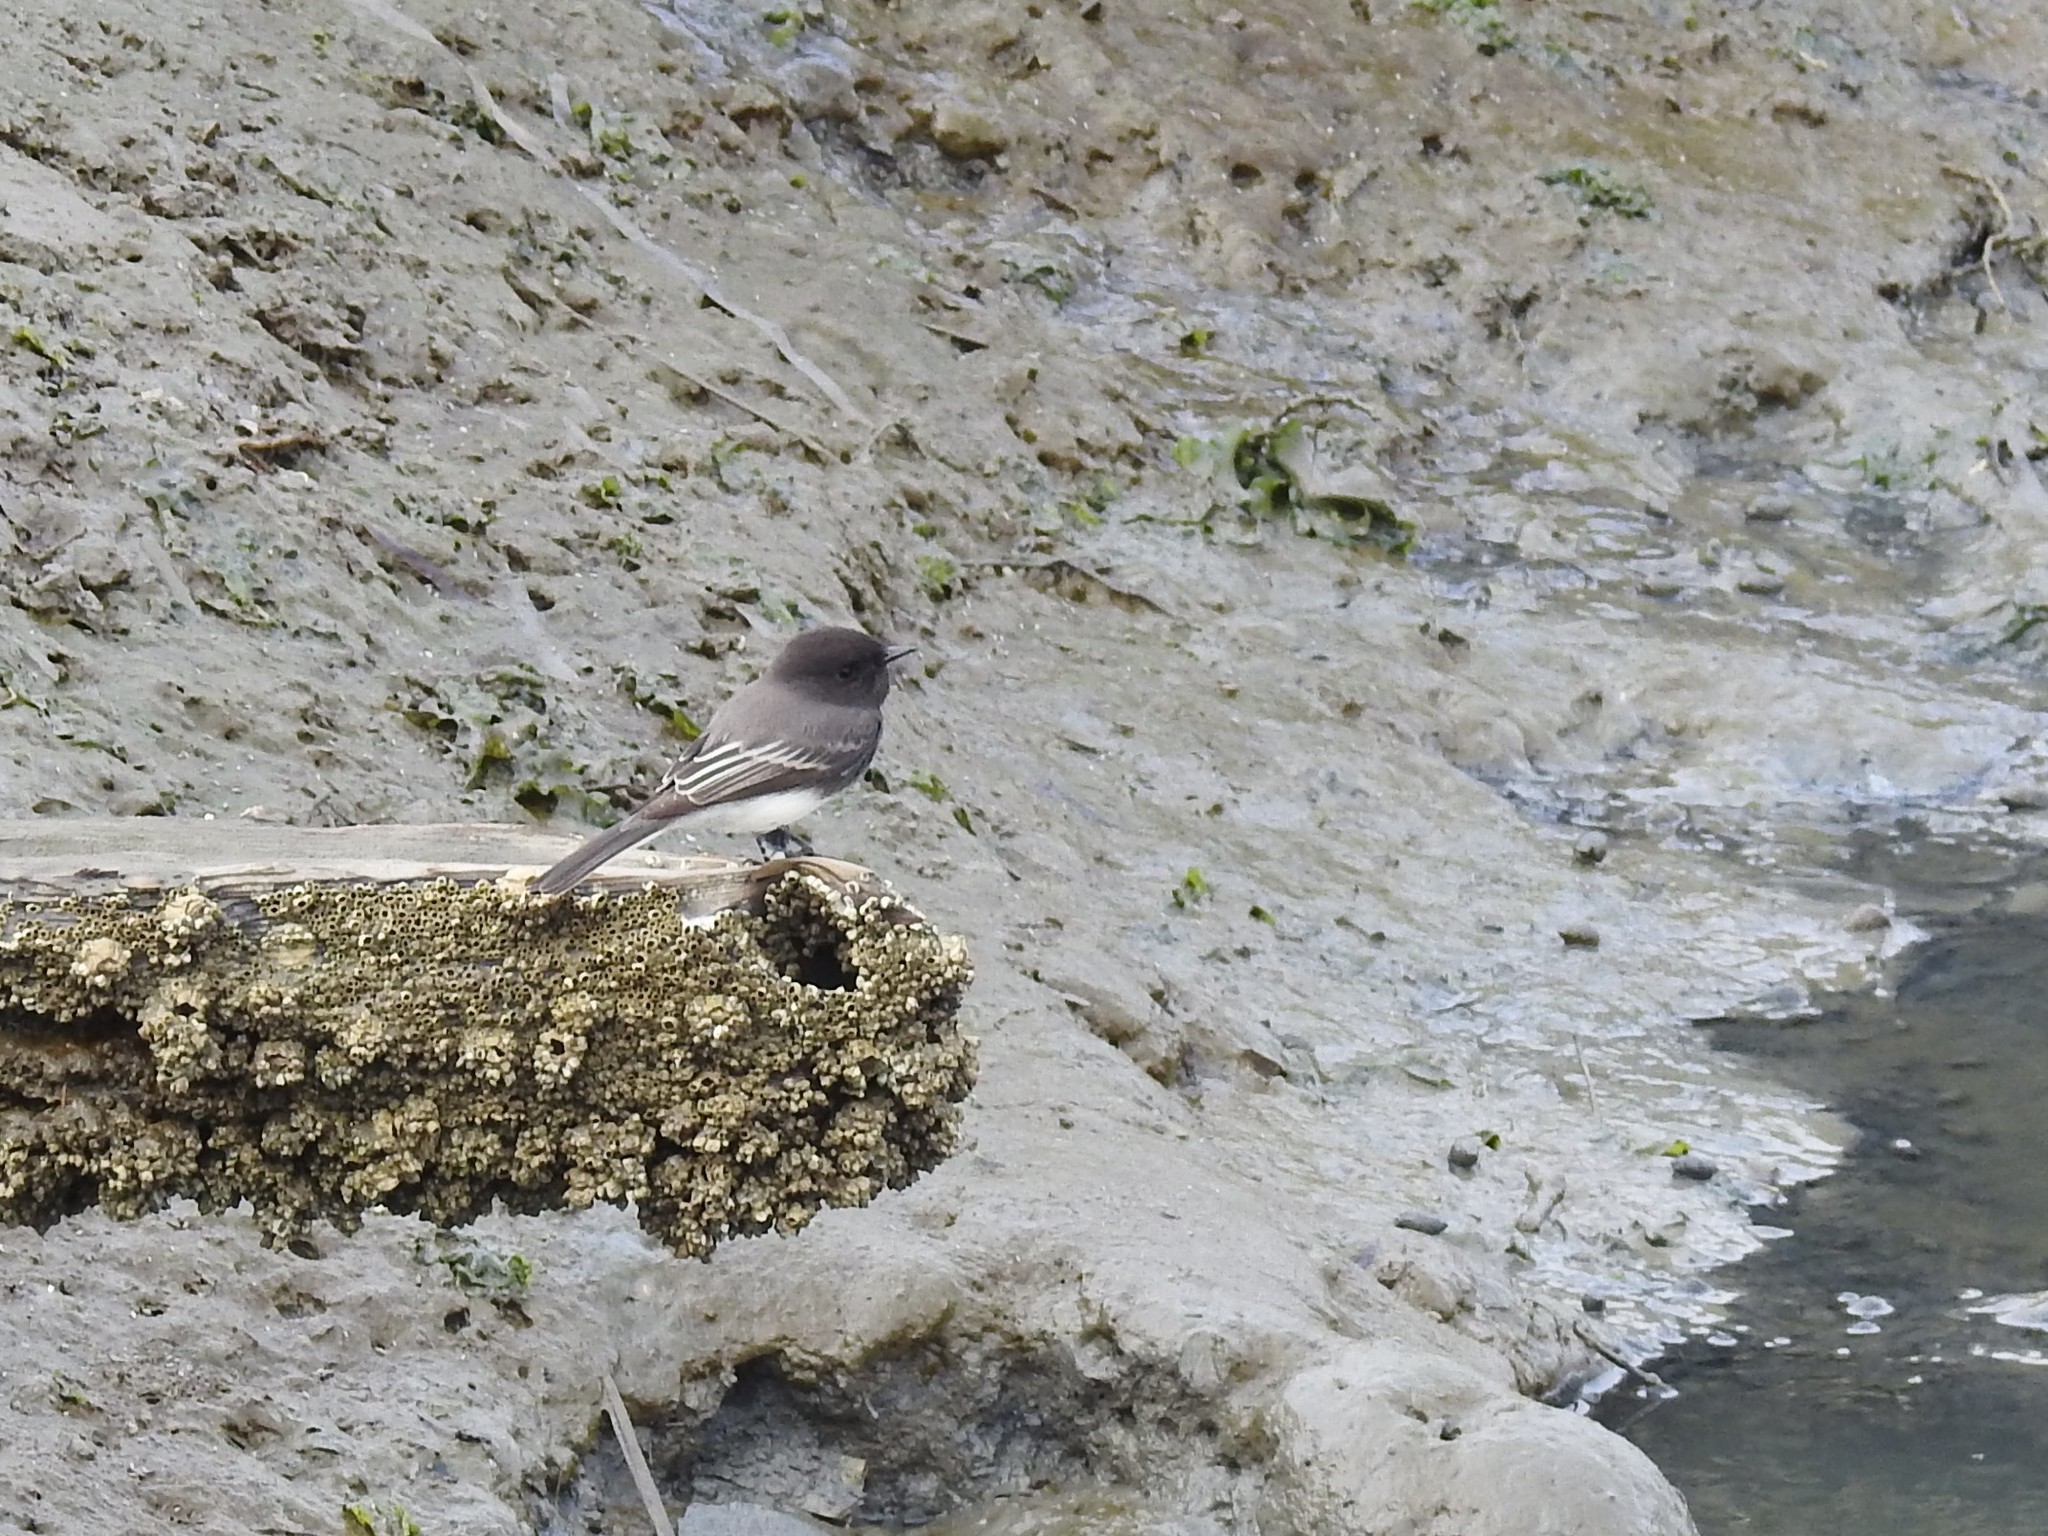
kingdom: Animalia
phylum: Chordata
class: Aves
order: Passeriformes
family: Tyrannidae
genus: Sayornis
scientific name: Sayornis nigricans
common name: Black phoebe
